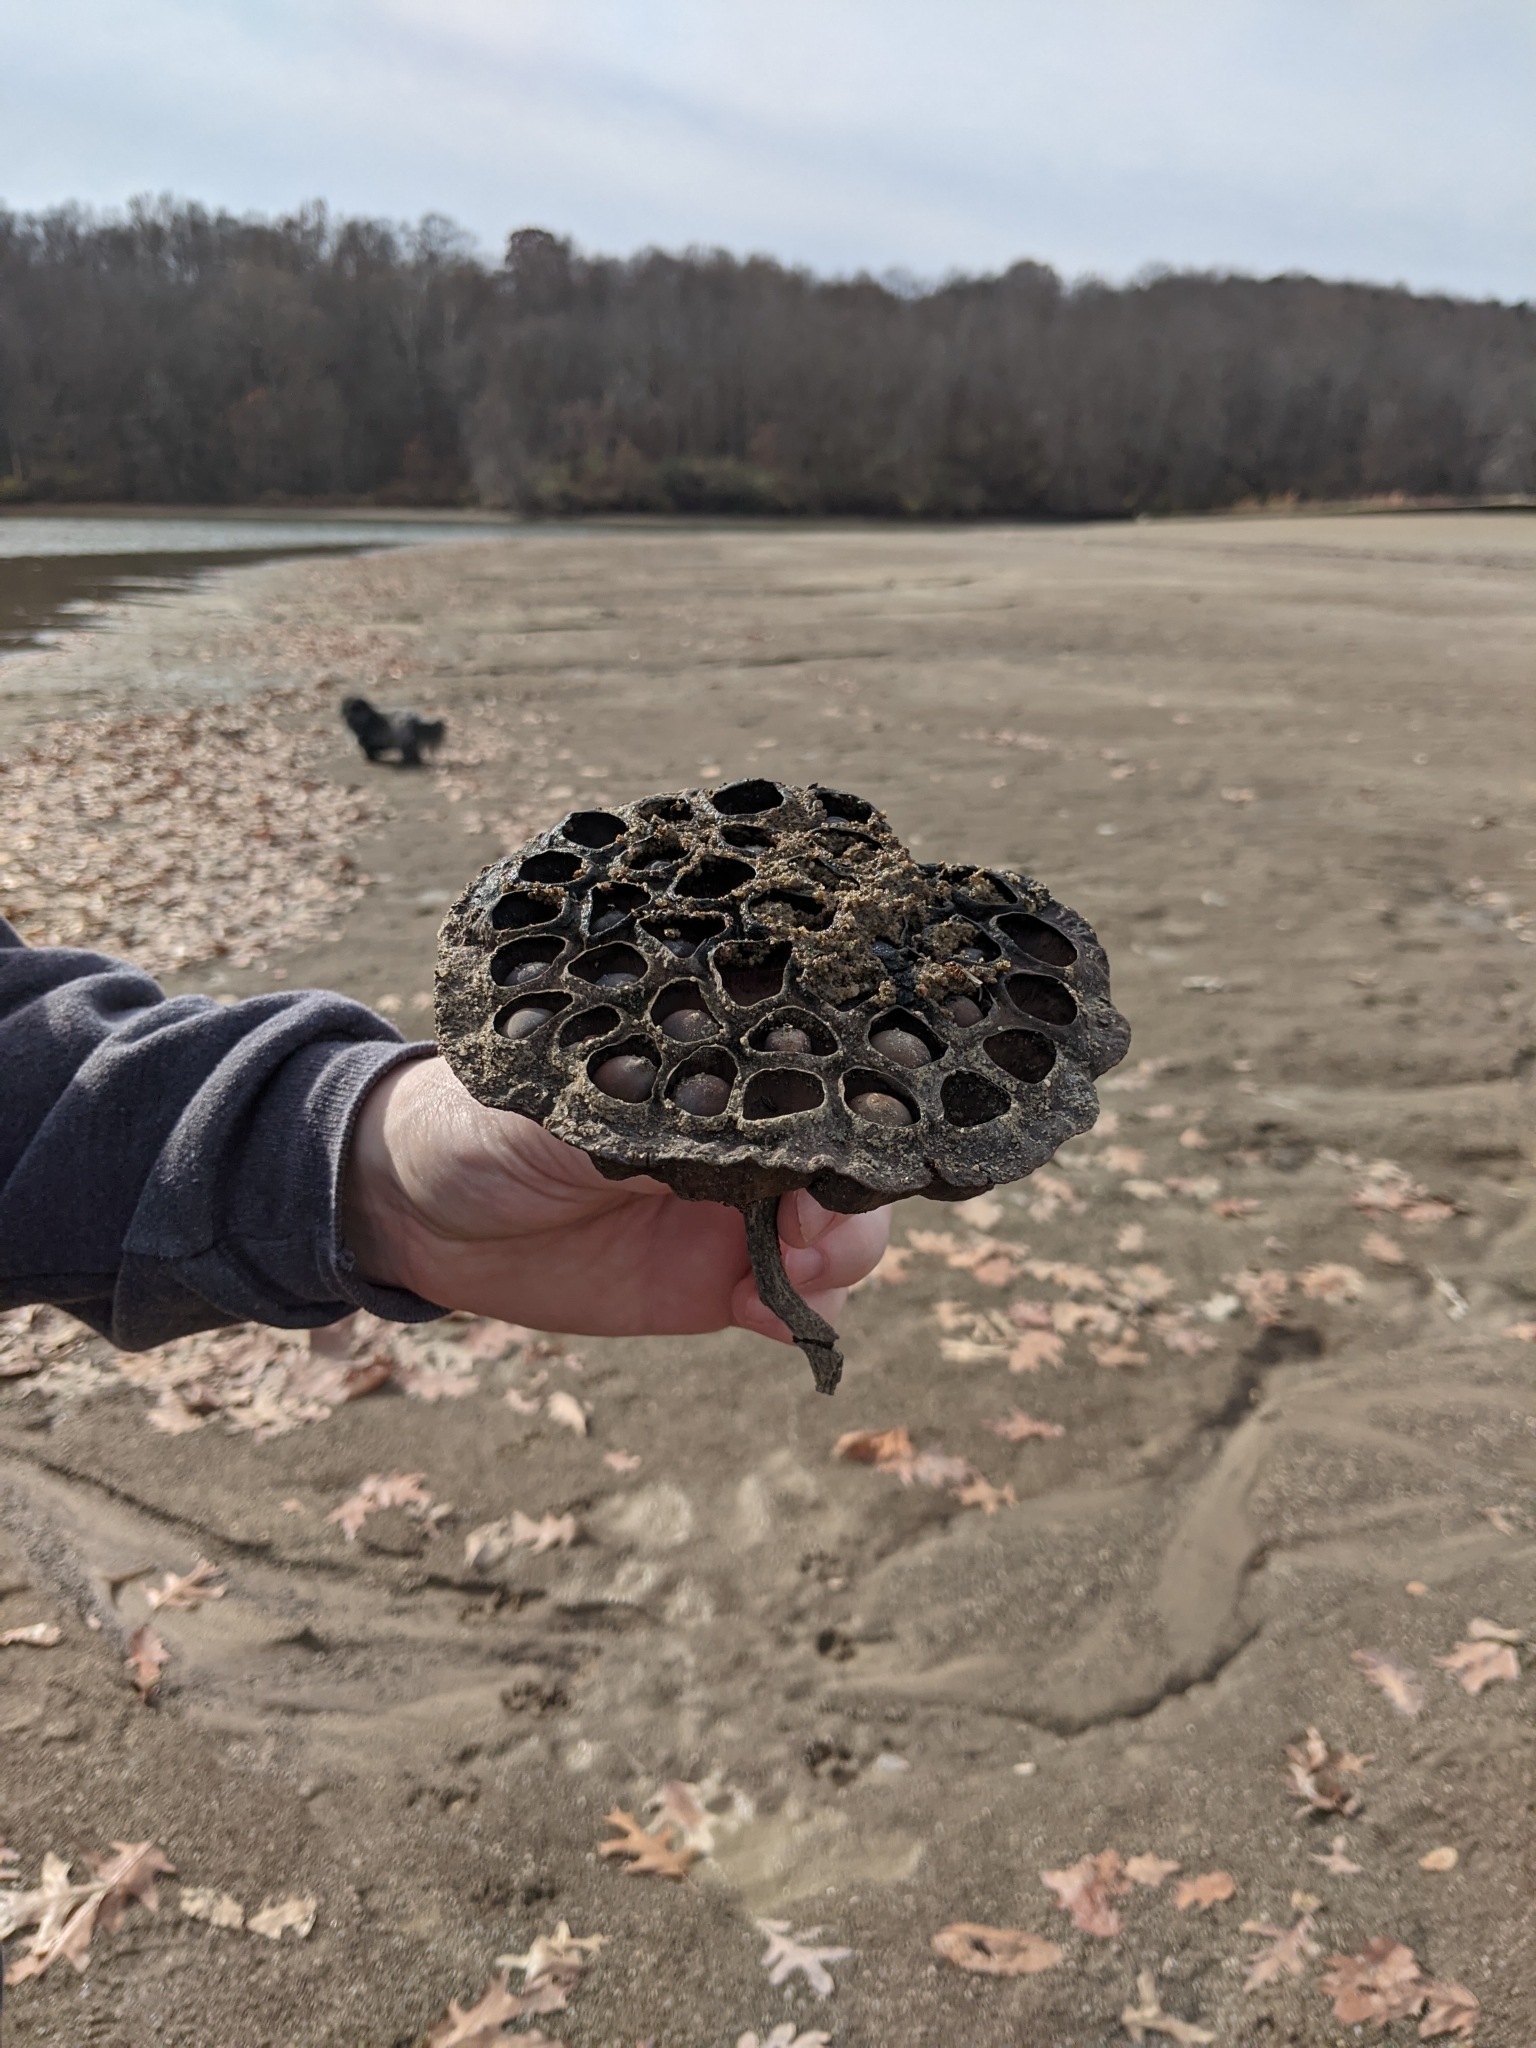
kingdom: Plantae
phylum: Tracheophyta
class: Magnoliopsida
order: Proteales
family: Nelumbonaceae
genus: Nelumbo
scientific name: Nelumbo lutea
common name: American lotus
